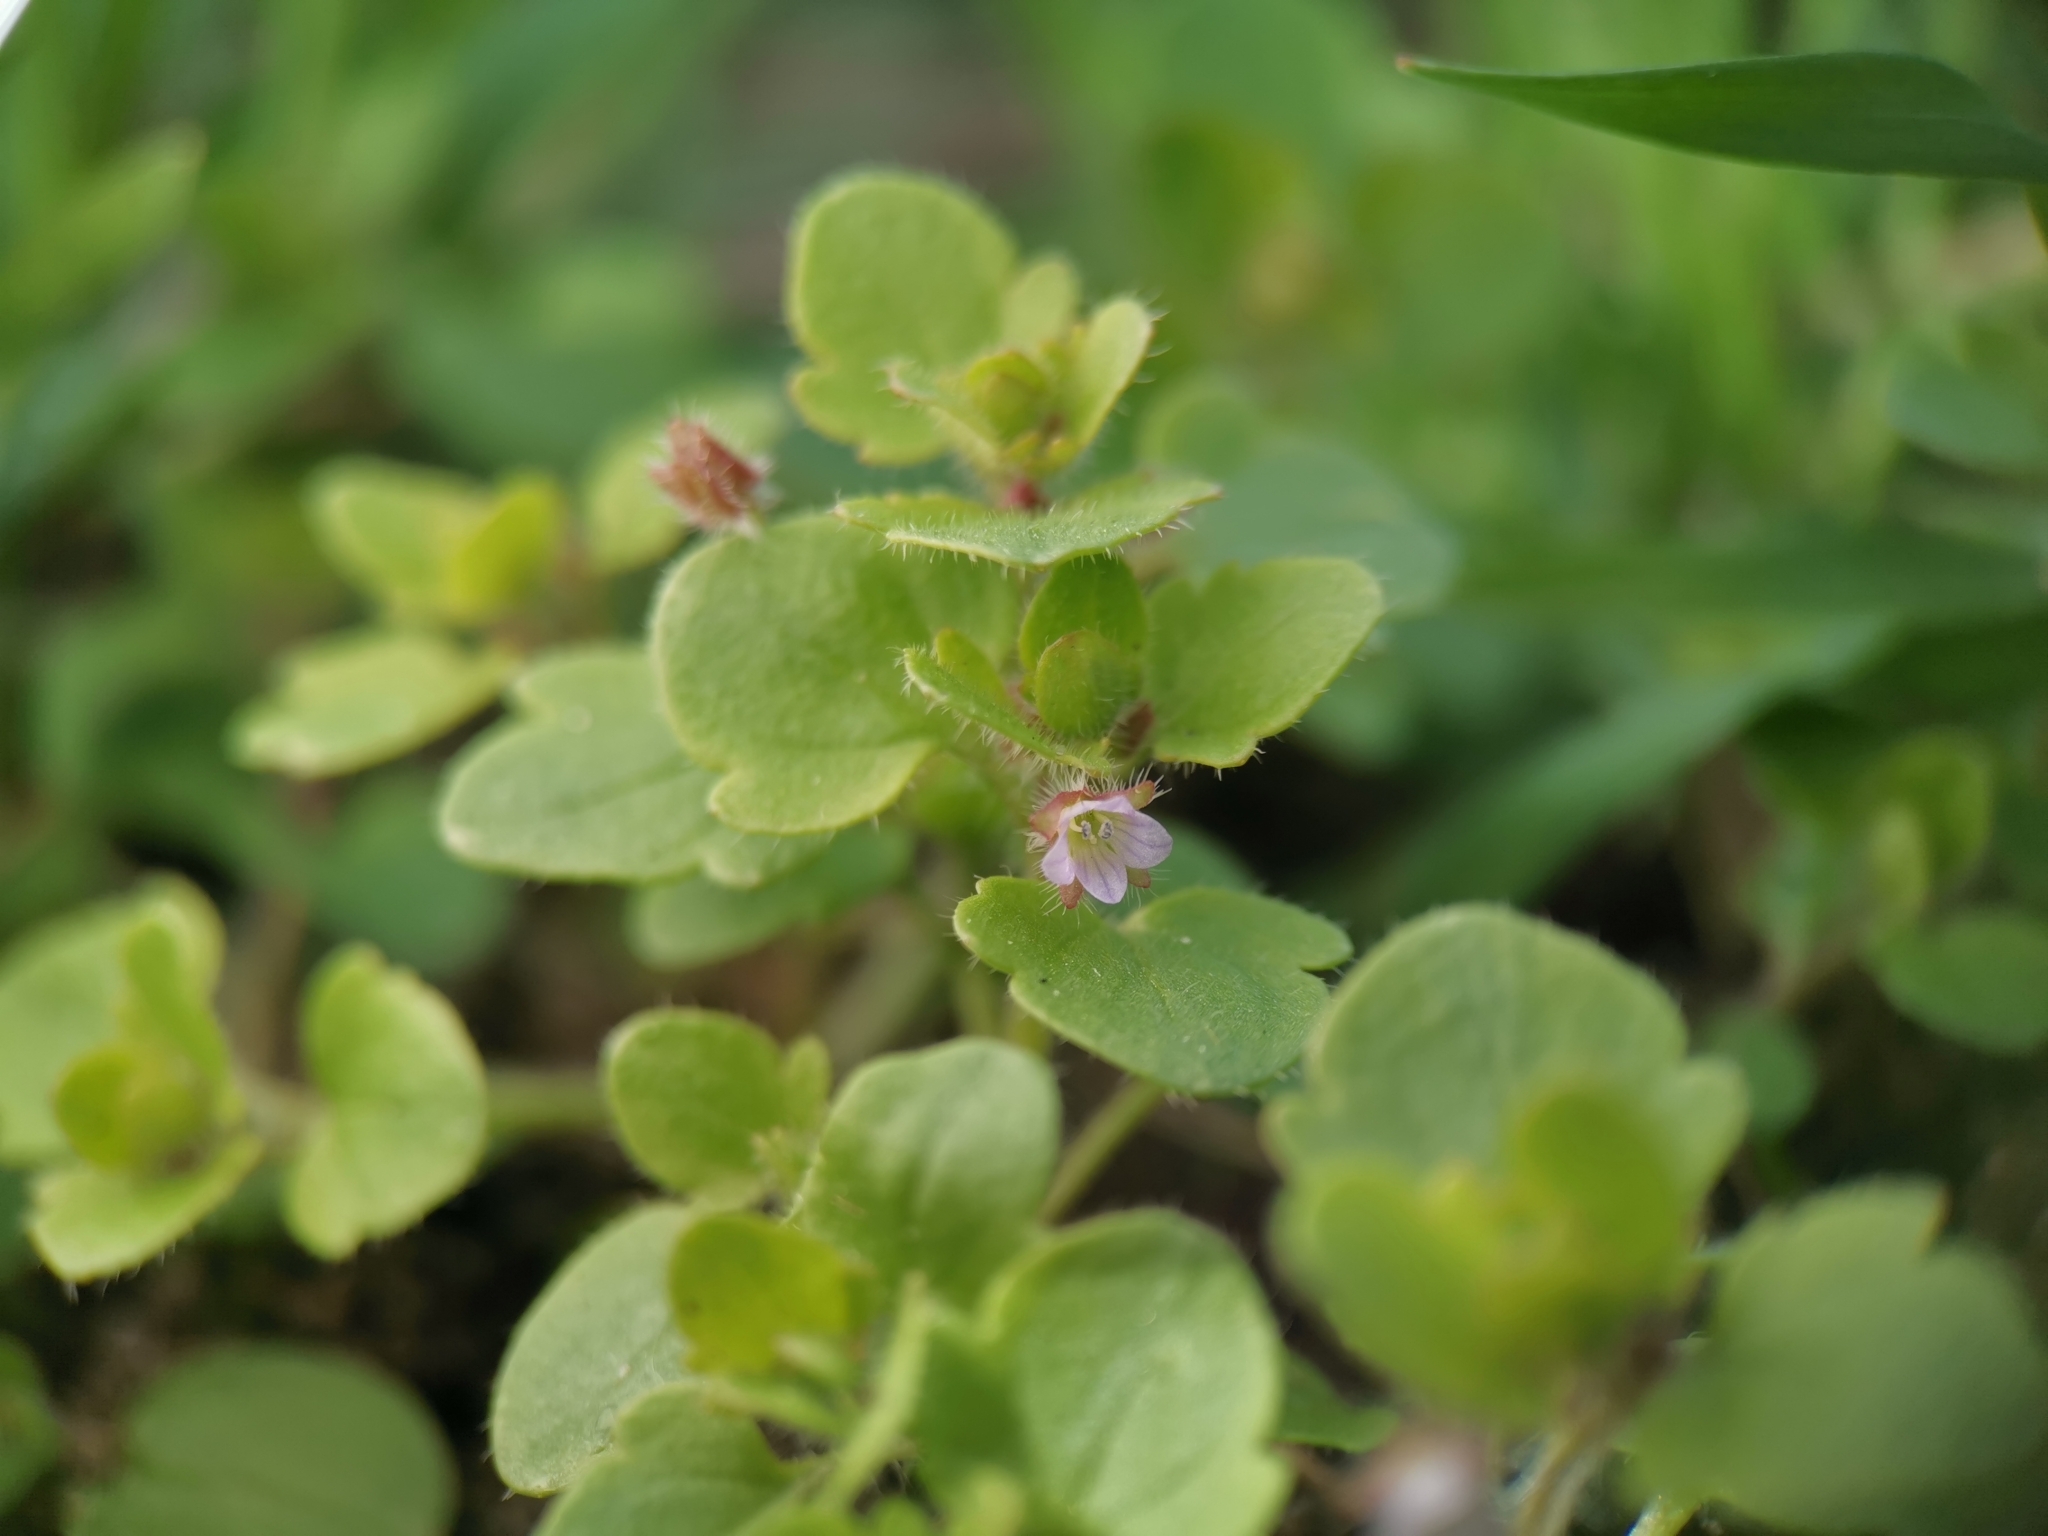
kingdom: Plantae
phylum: Tracheophyta
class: Magnoliopsida
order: Lamiales
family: Plantaginaceae
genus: Veronica
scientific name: Veronica sublobata
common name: False ivy-leaved speedwell
